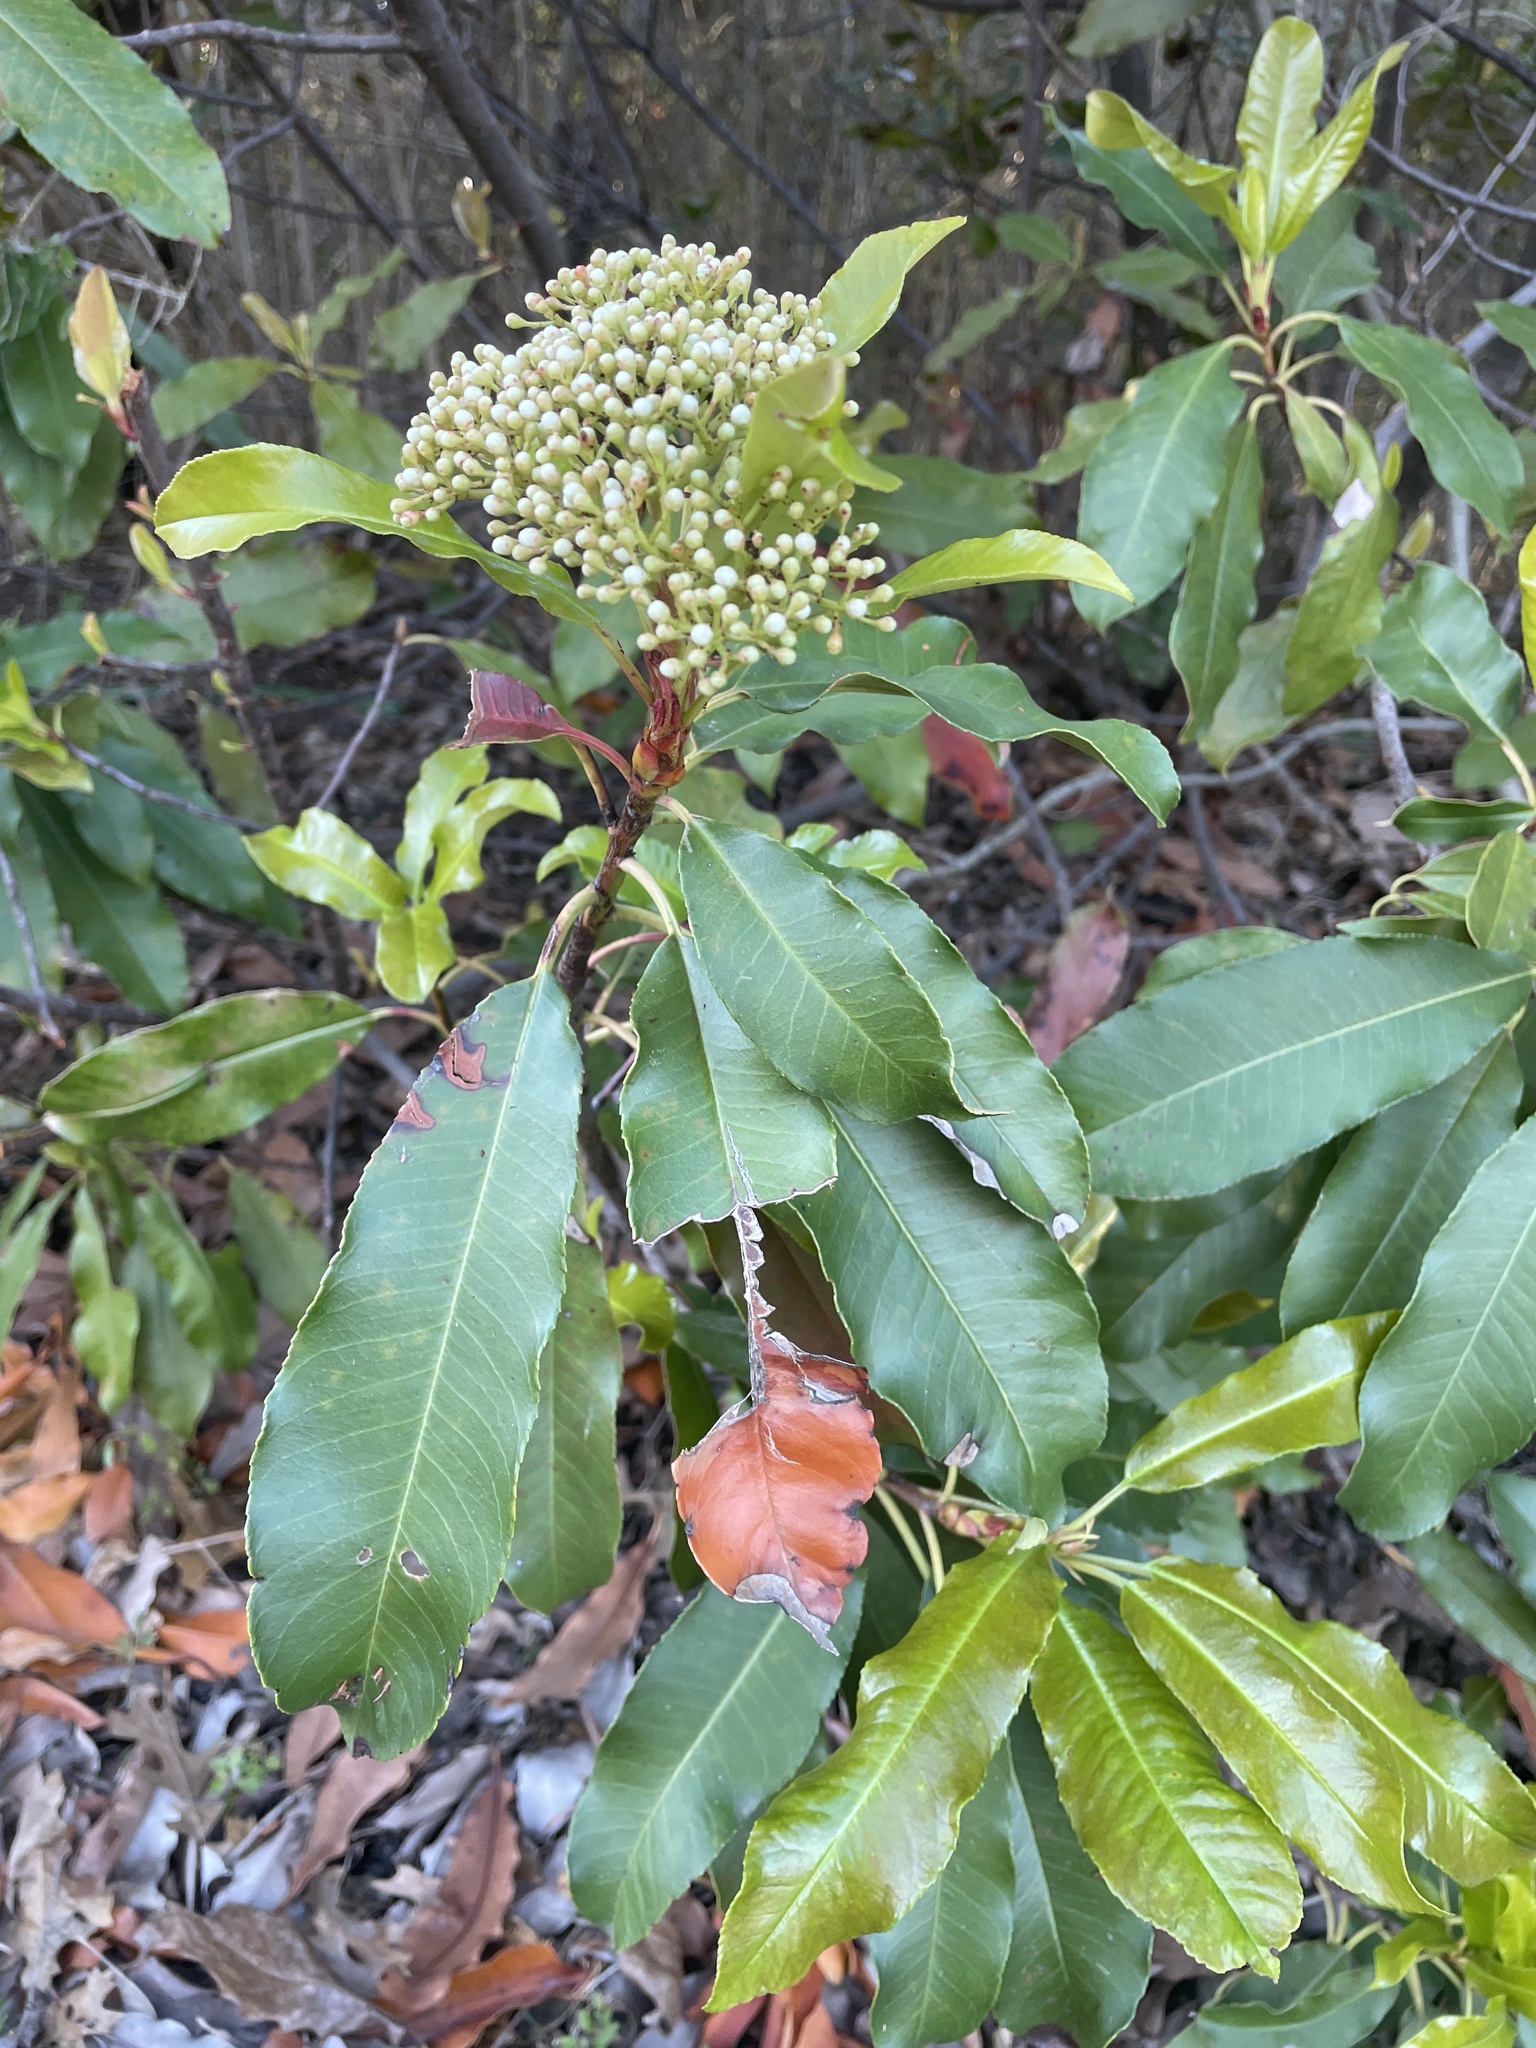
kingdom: Plantae
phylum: Tracheophyta
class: Magnoliopsida
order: Rosales
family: Rosaceae
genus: Photinia
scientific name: Photinia serratifolia
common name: Taiwanese photinia
